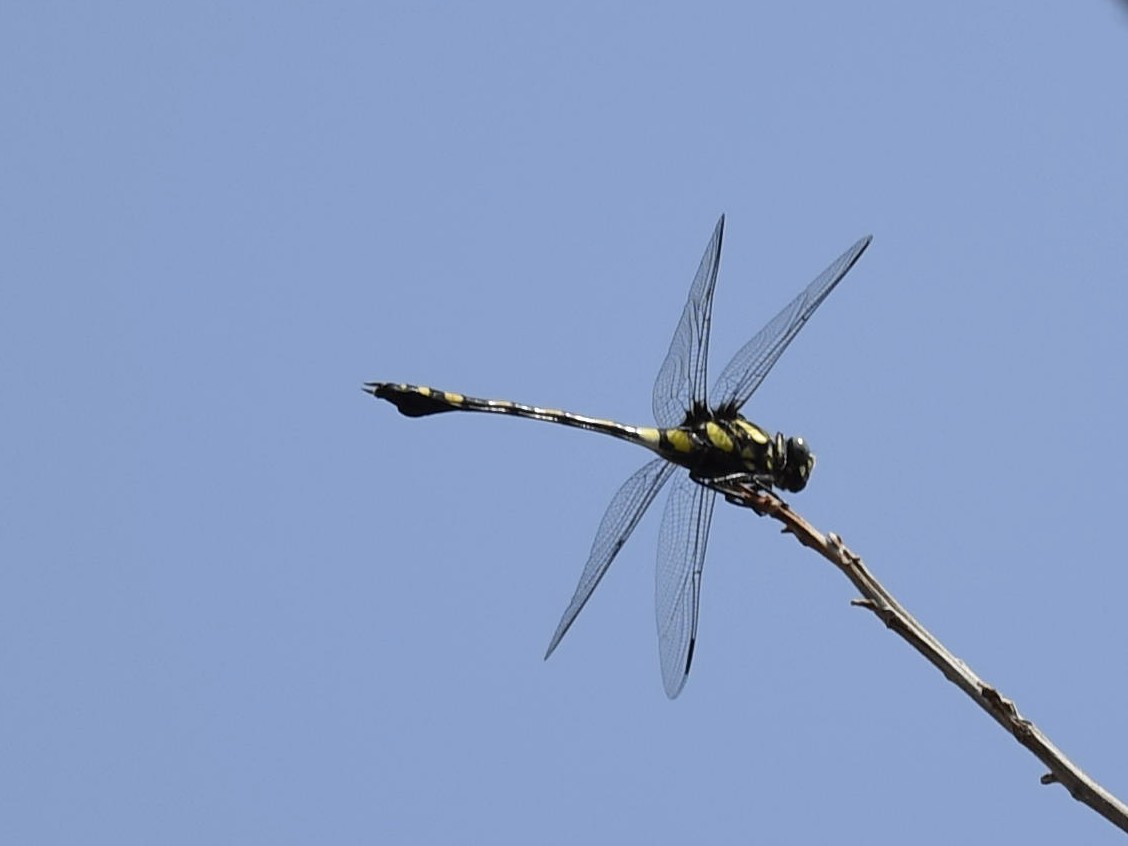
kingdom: Animalia
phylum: Arthropoda
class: Insecta
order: Odonata
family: Gomphidae
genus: Ictinogomphus
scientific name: Ictinogomphus rapax
